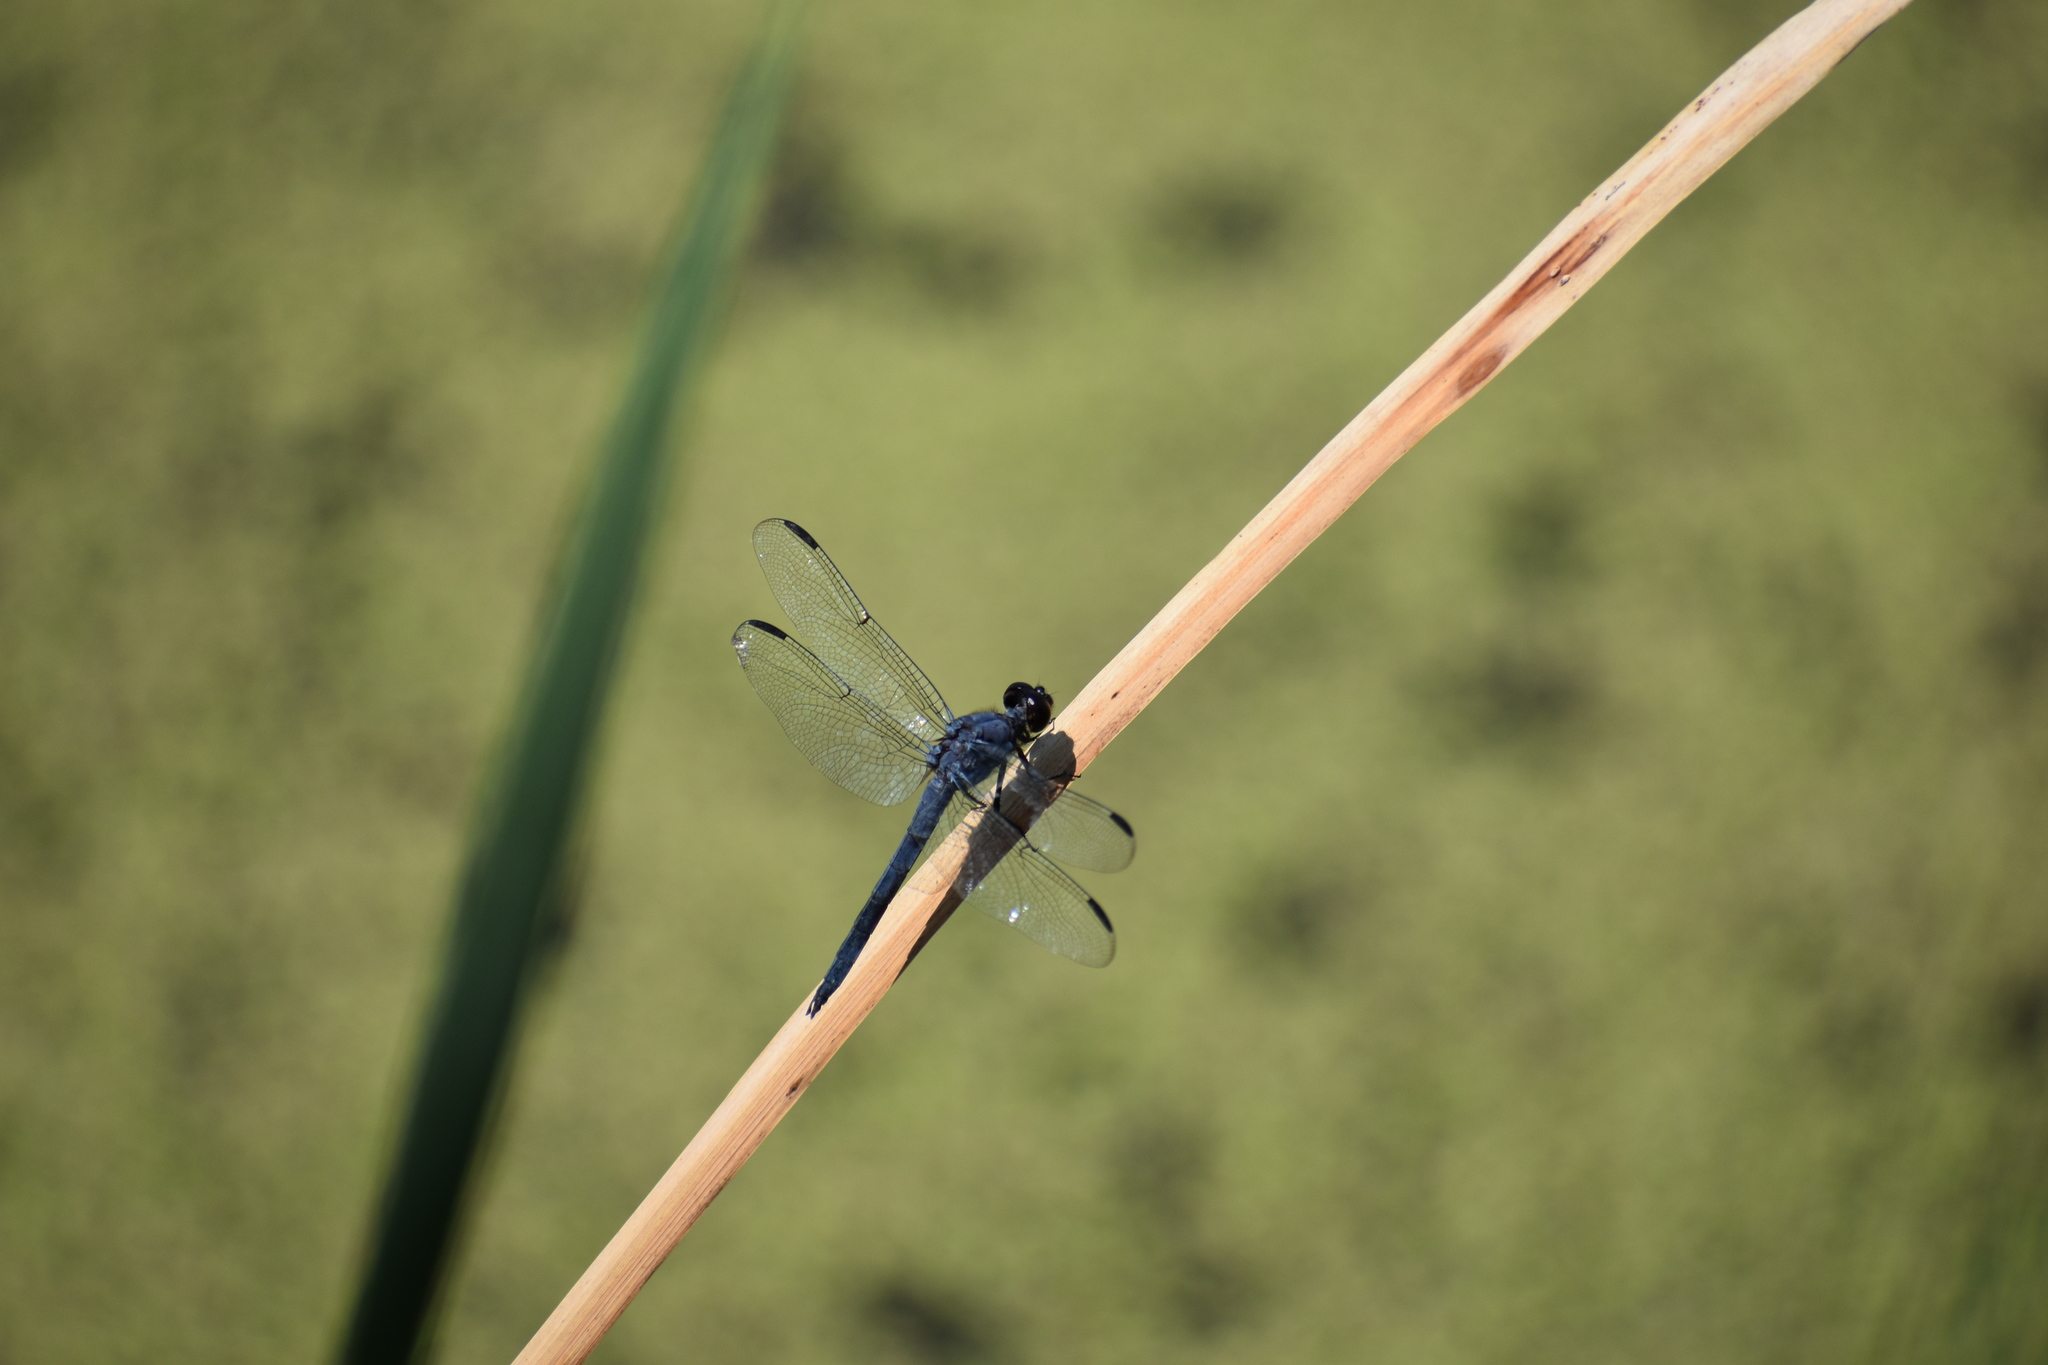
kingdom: Animalia
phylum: Arthropoda
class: Insecta
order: Odonata
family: Libellulidae
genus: Libellula
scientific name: Libellula incesta
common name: Slaty skimmer
